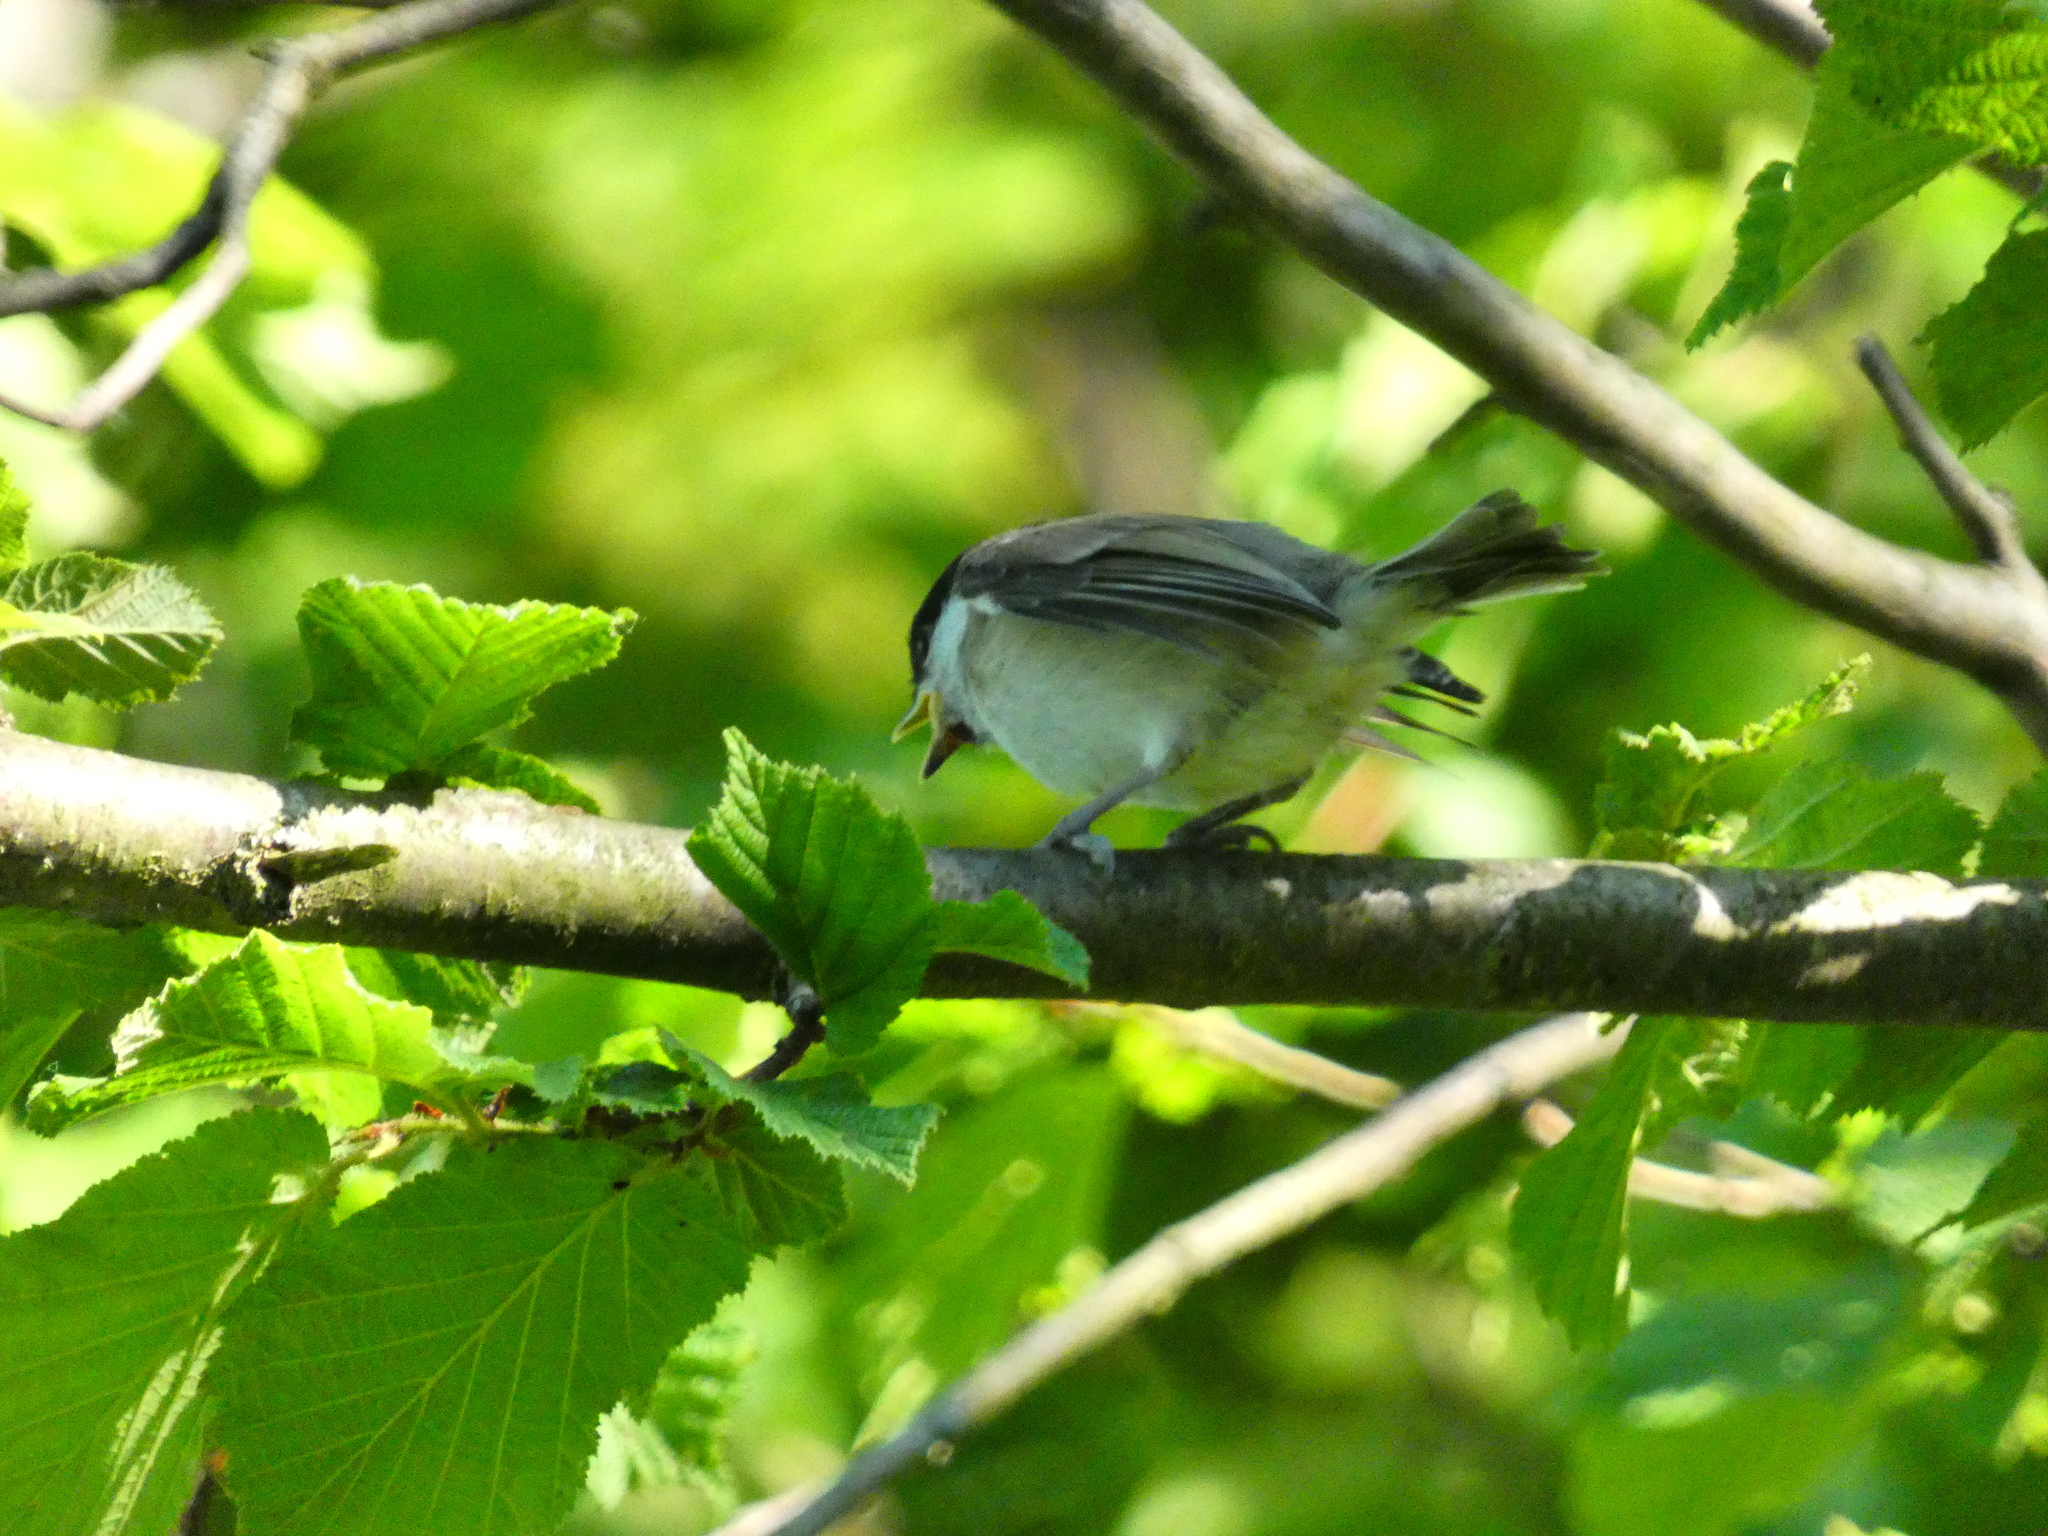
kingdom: Animalia
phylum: Chordata
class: Aves
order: Passeriformes
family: Paridae
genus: Poecile
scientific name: Poecile palustris
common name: Marsh tit
